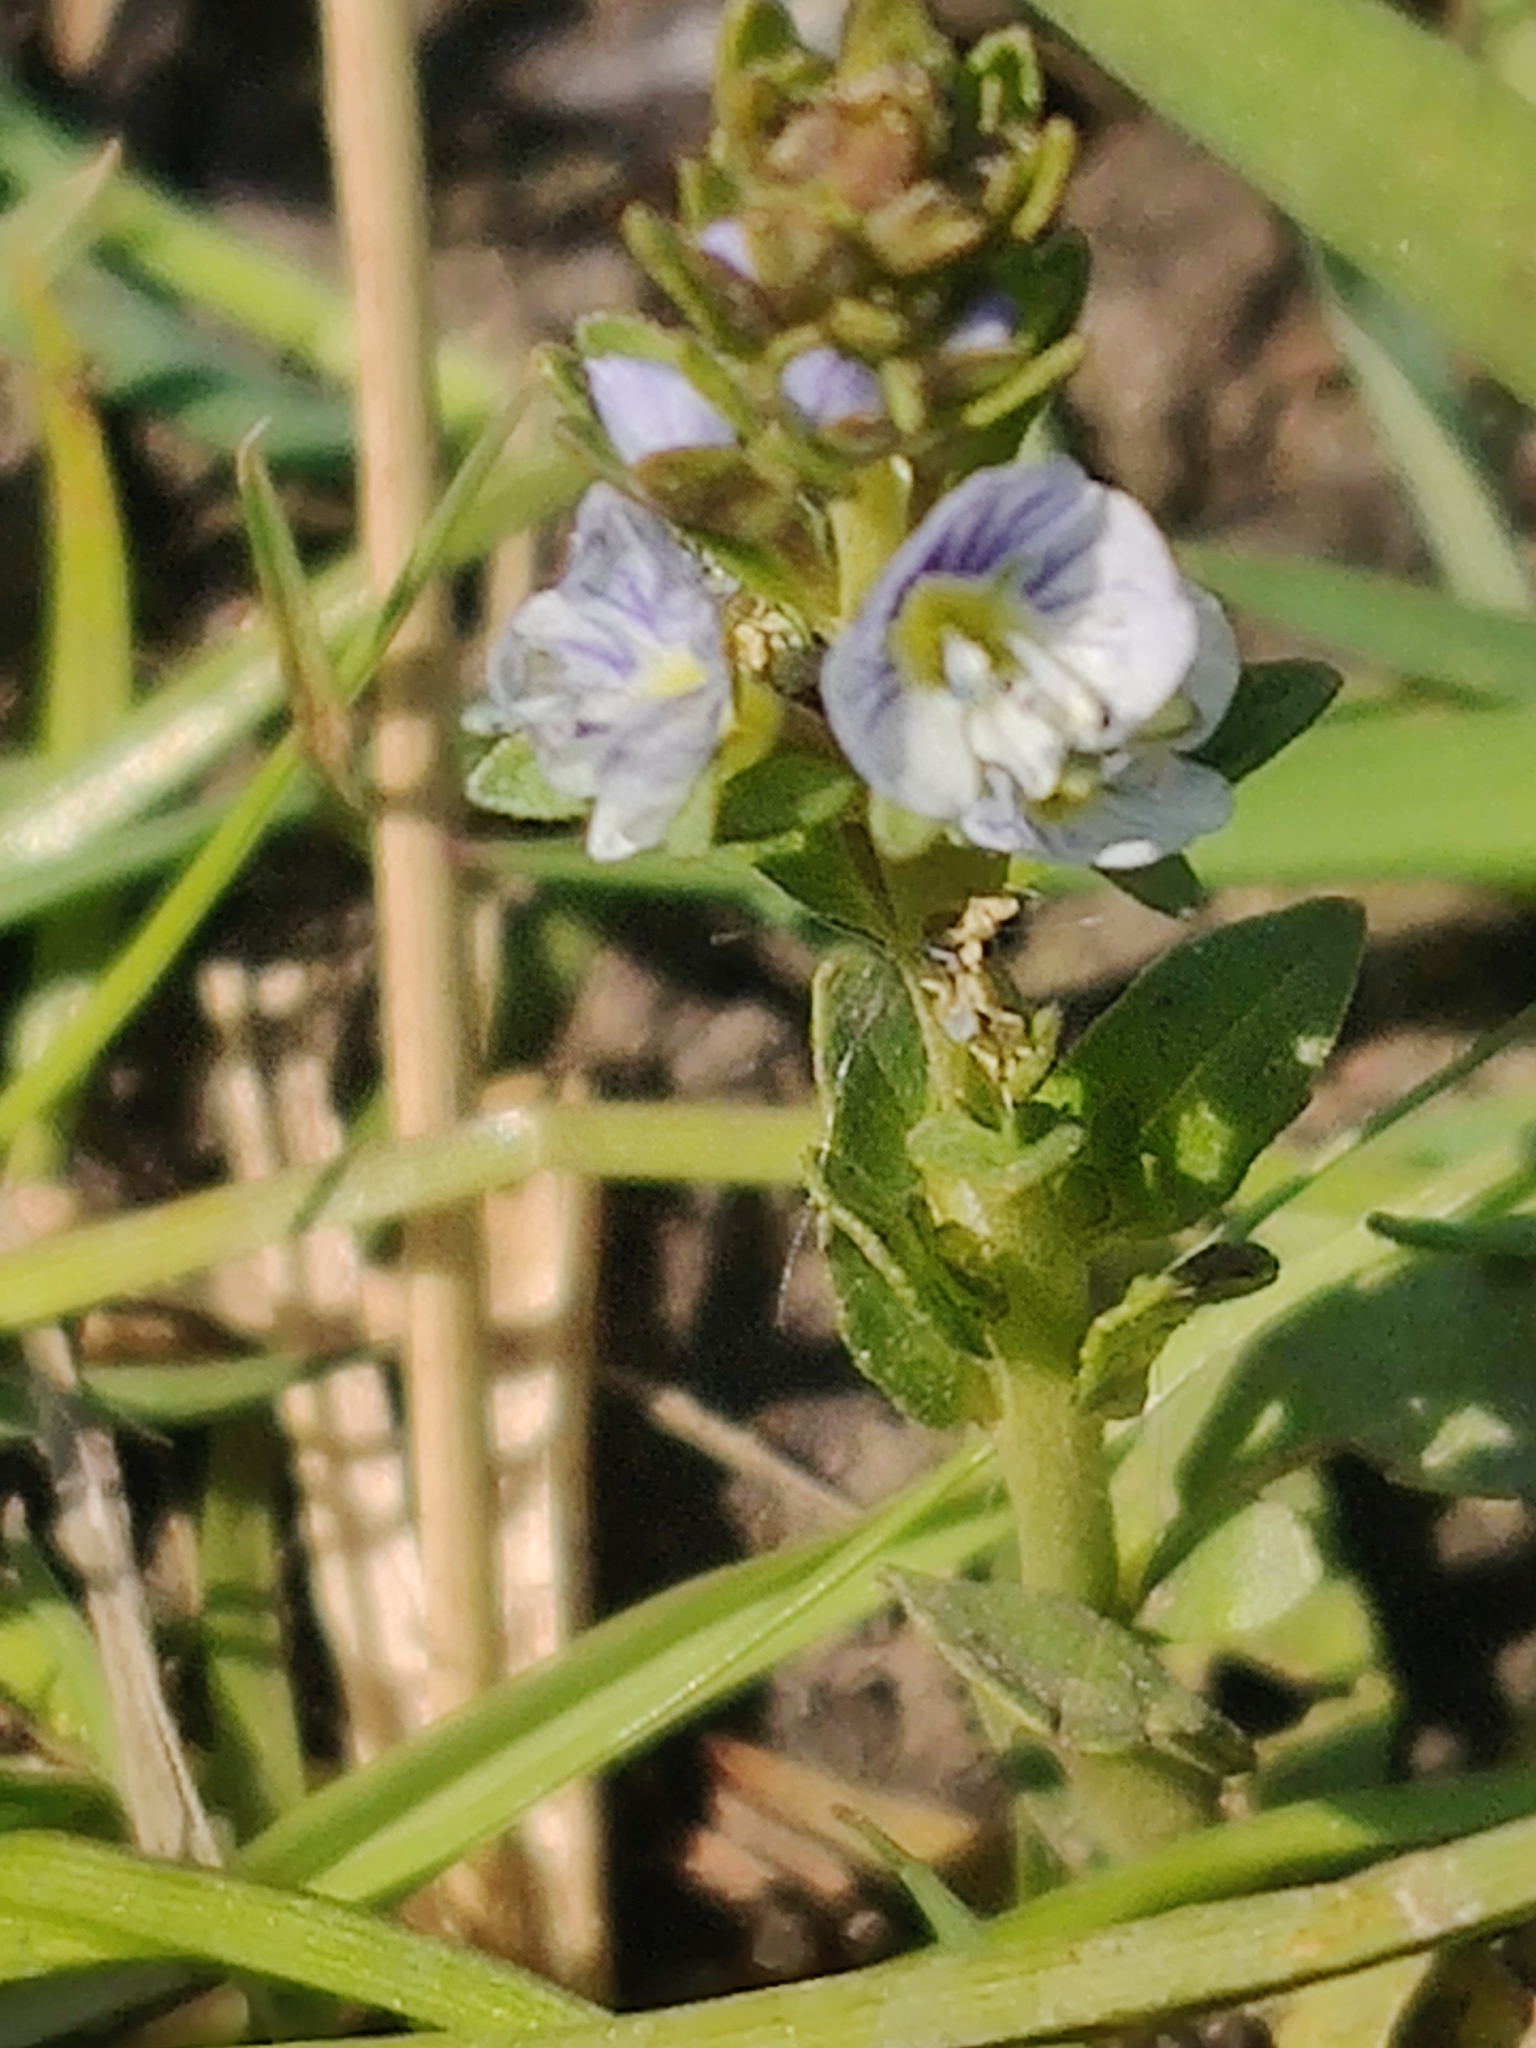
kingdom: Plantae
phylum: Tracheophyta
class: Magnoliopsida
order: Lamiales
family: Plantaginaceae
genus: Veronica
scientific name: Veronica serpyllifolia
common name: Thyme-leaved speedwell
